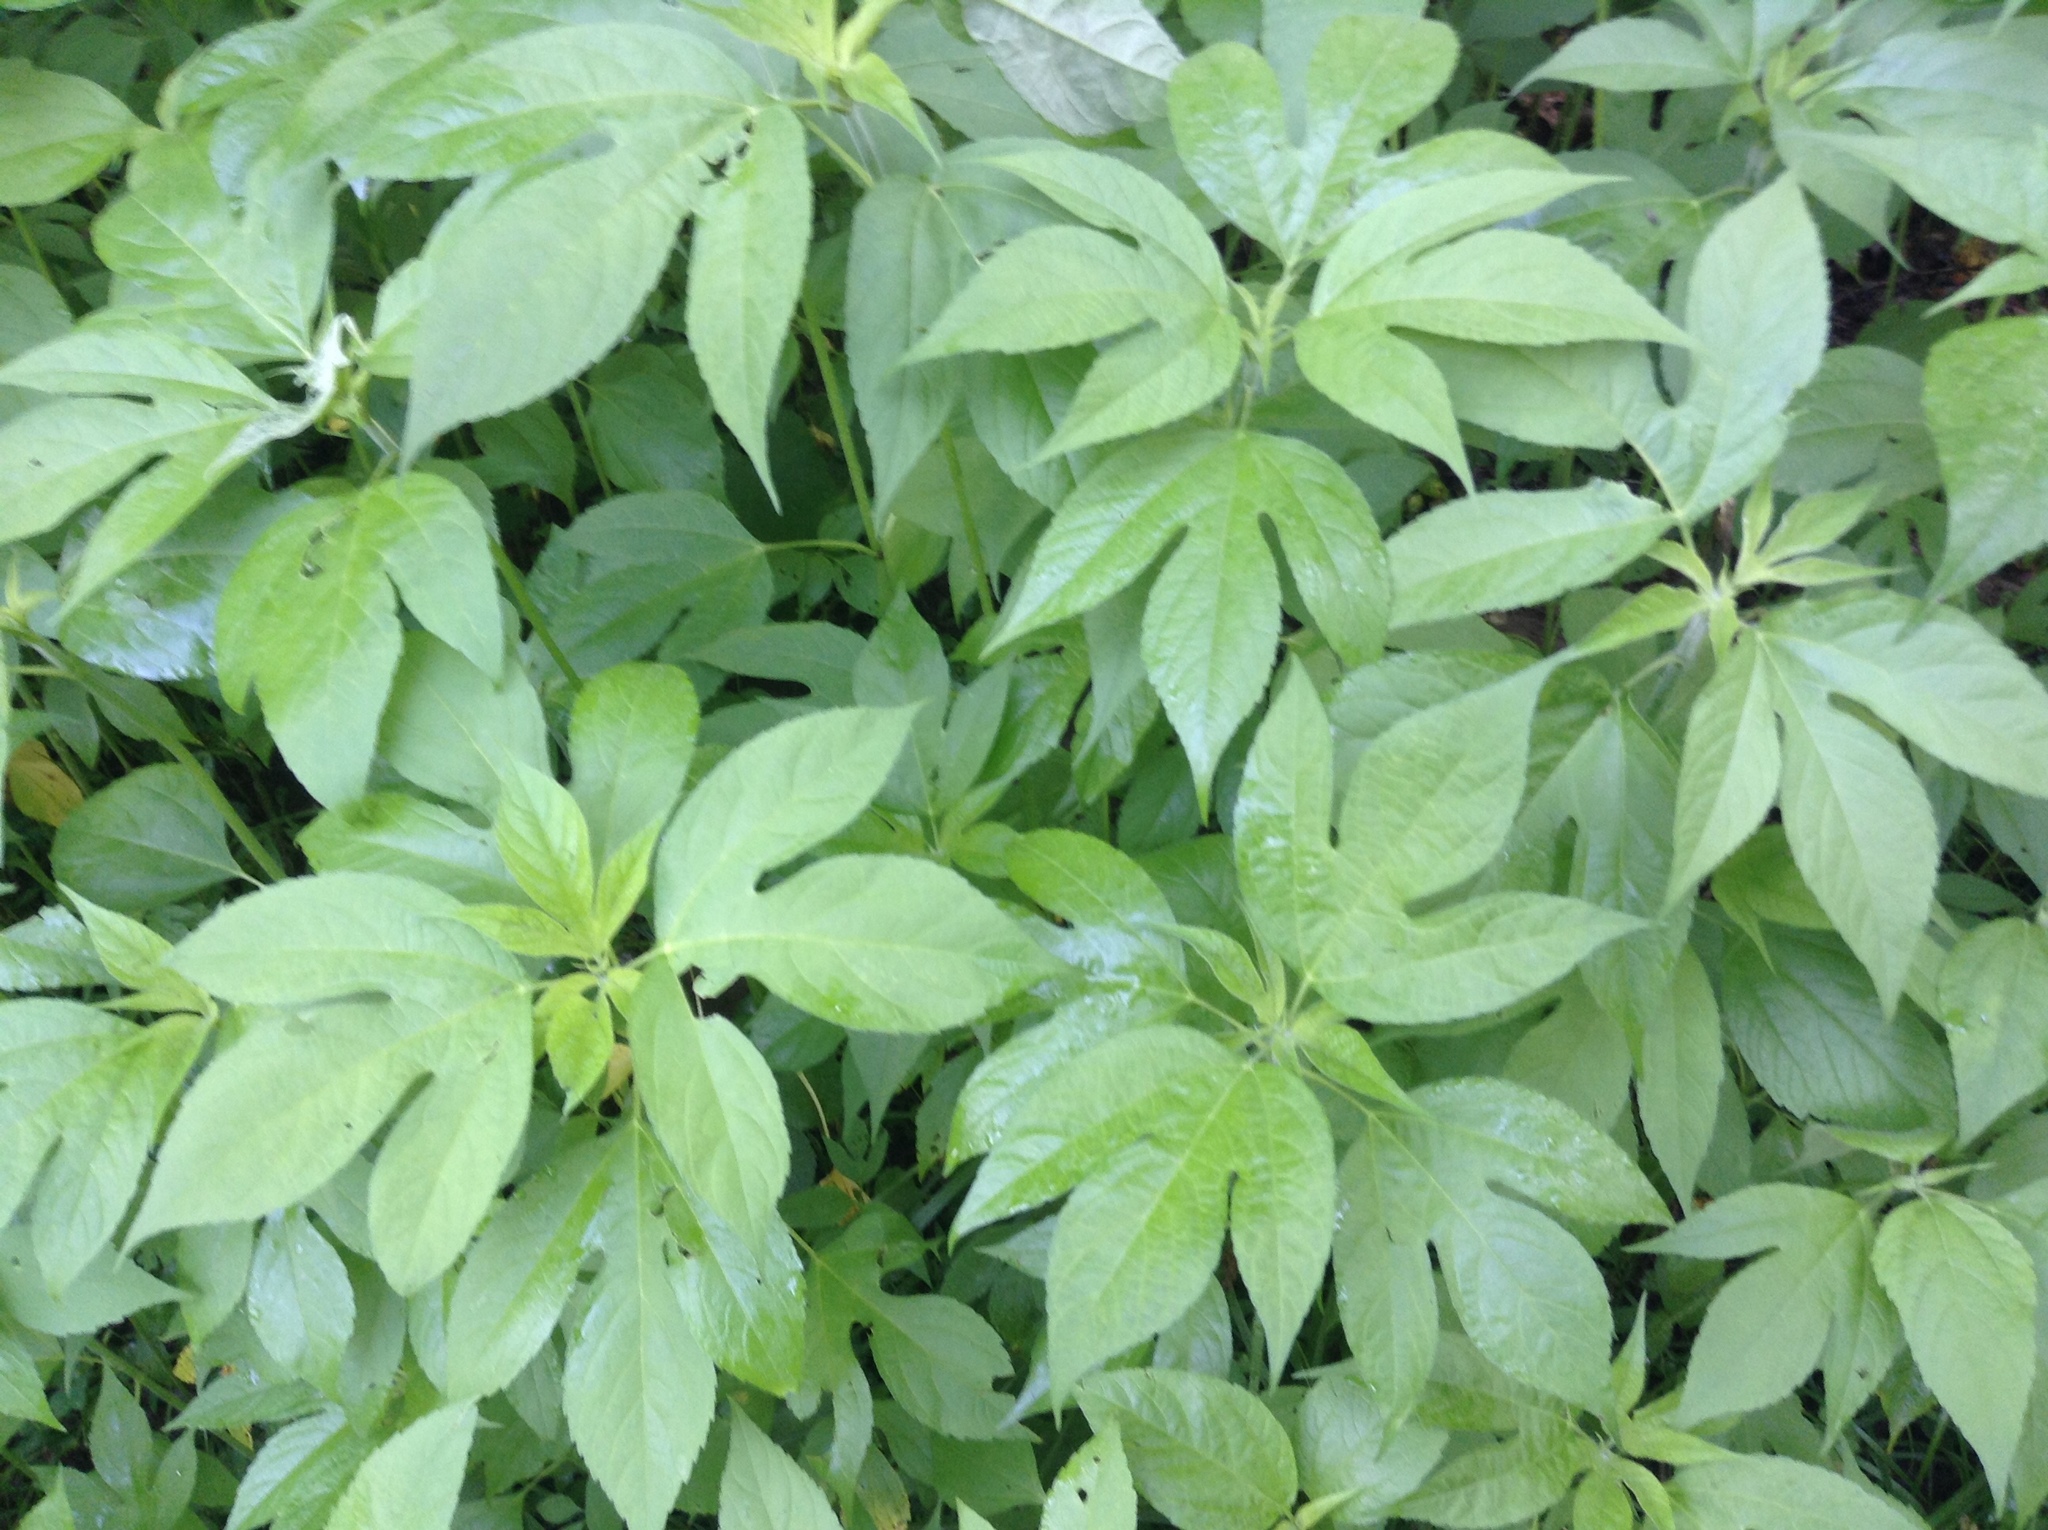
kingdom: Plantae
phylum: Tracheophyta
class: Magnoliopsida
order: Asterales
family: Asteraceae
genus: Ambrosia
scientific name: Ambrosia trifida
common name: Giant ragweed
